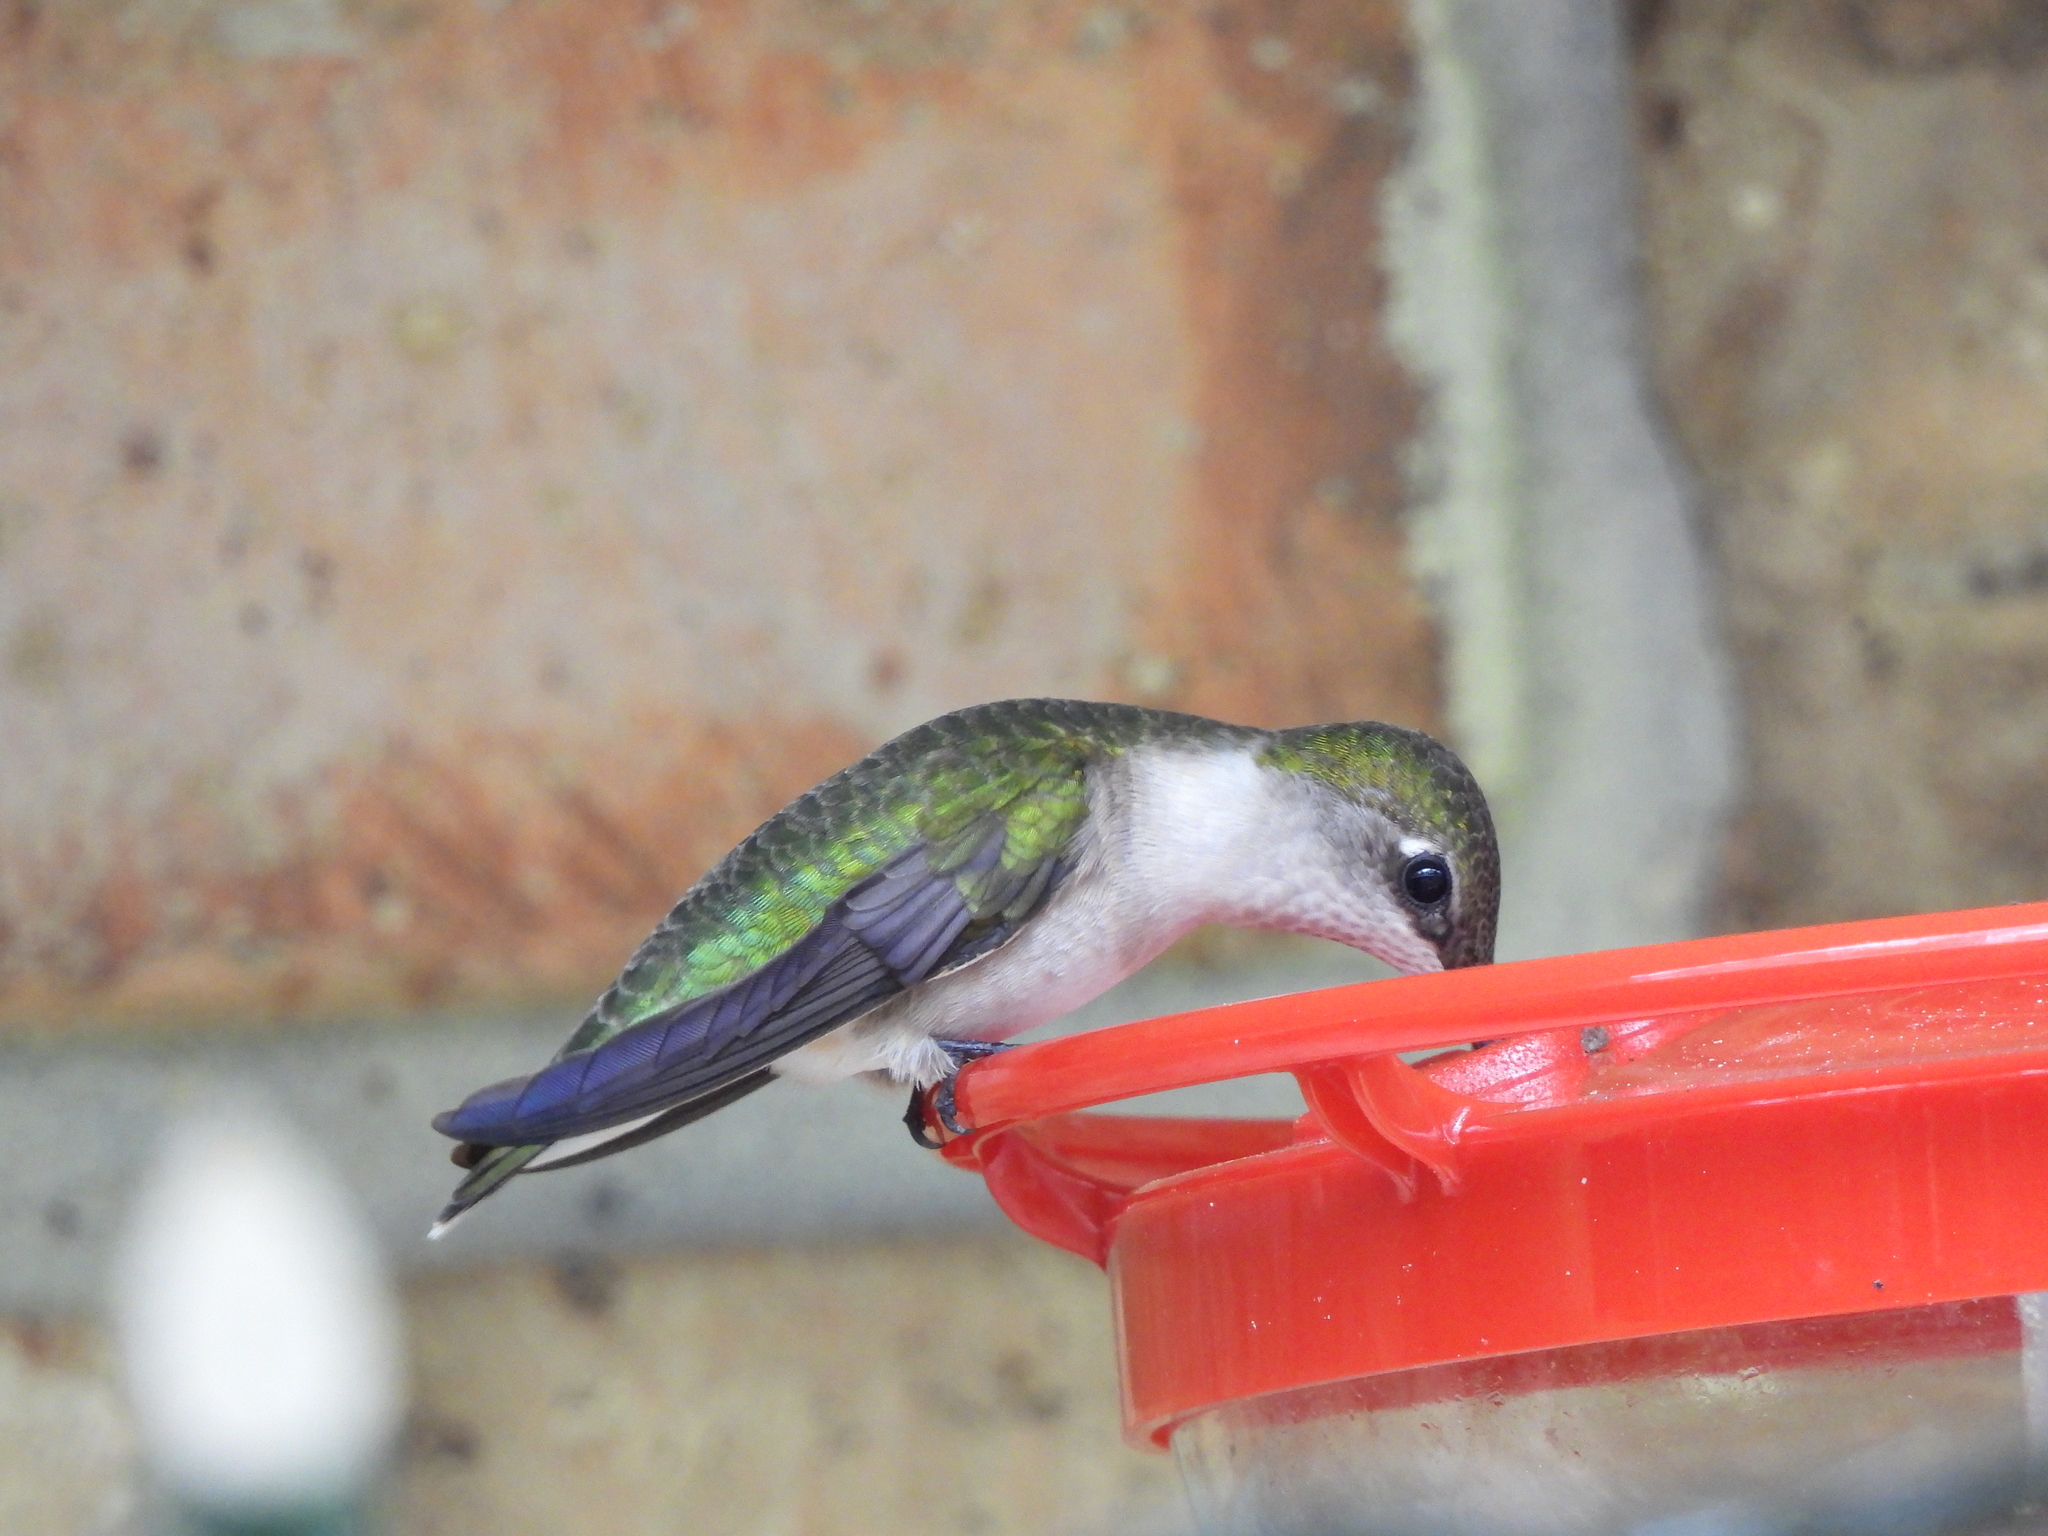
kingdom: Animalia
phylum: Chordata
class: Aves
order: Apodiformes
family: Trochilidae
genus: Archilochus
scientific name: Archilochus colubris
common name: Ruby-throated hummingbird
